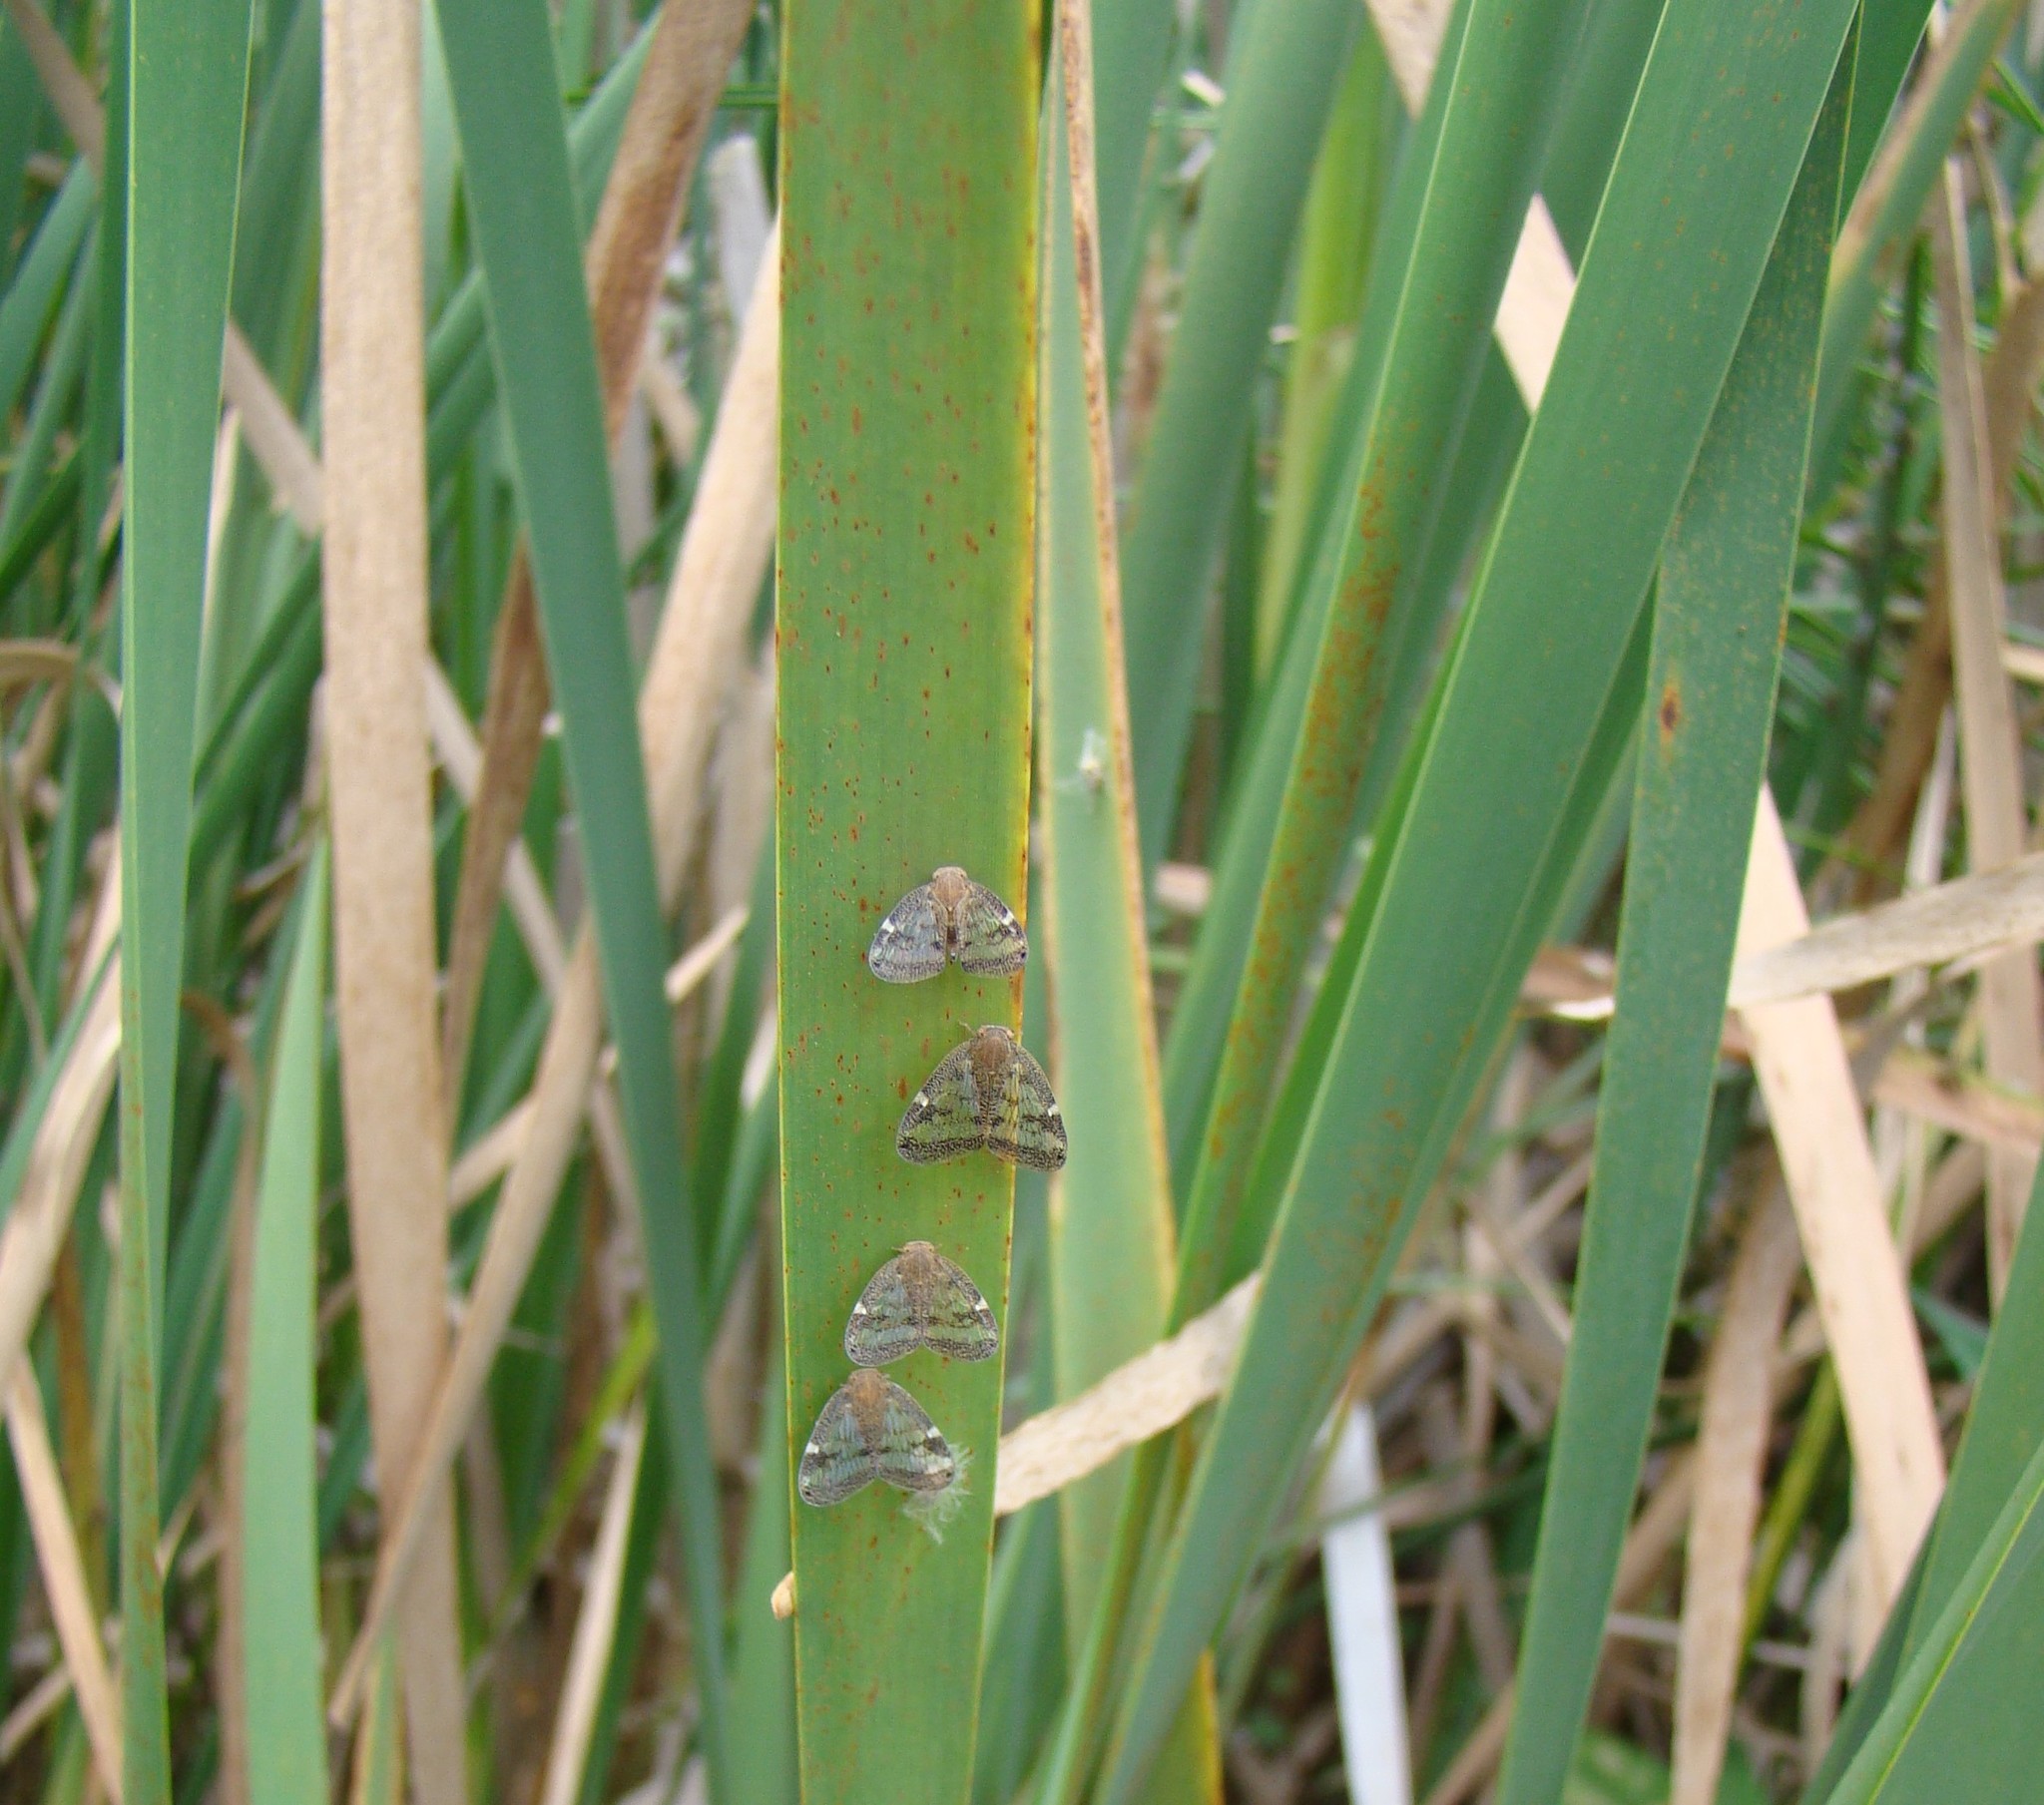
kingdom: Animalia
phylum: Arthropoda
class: Insecta
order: Hemiptera
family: Ricaniidae
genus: Scolypopa
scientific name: Scolypopa australis
